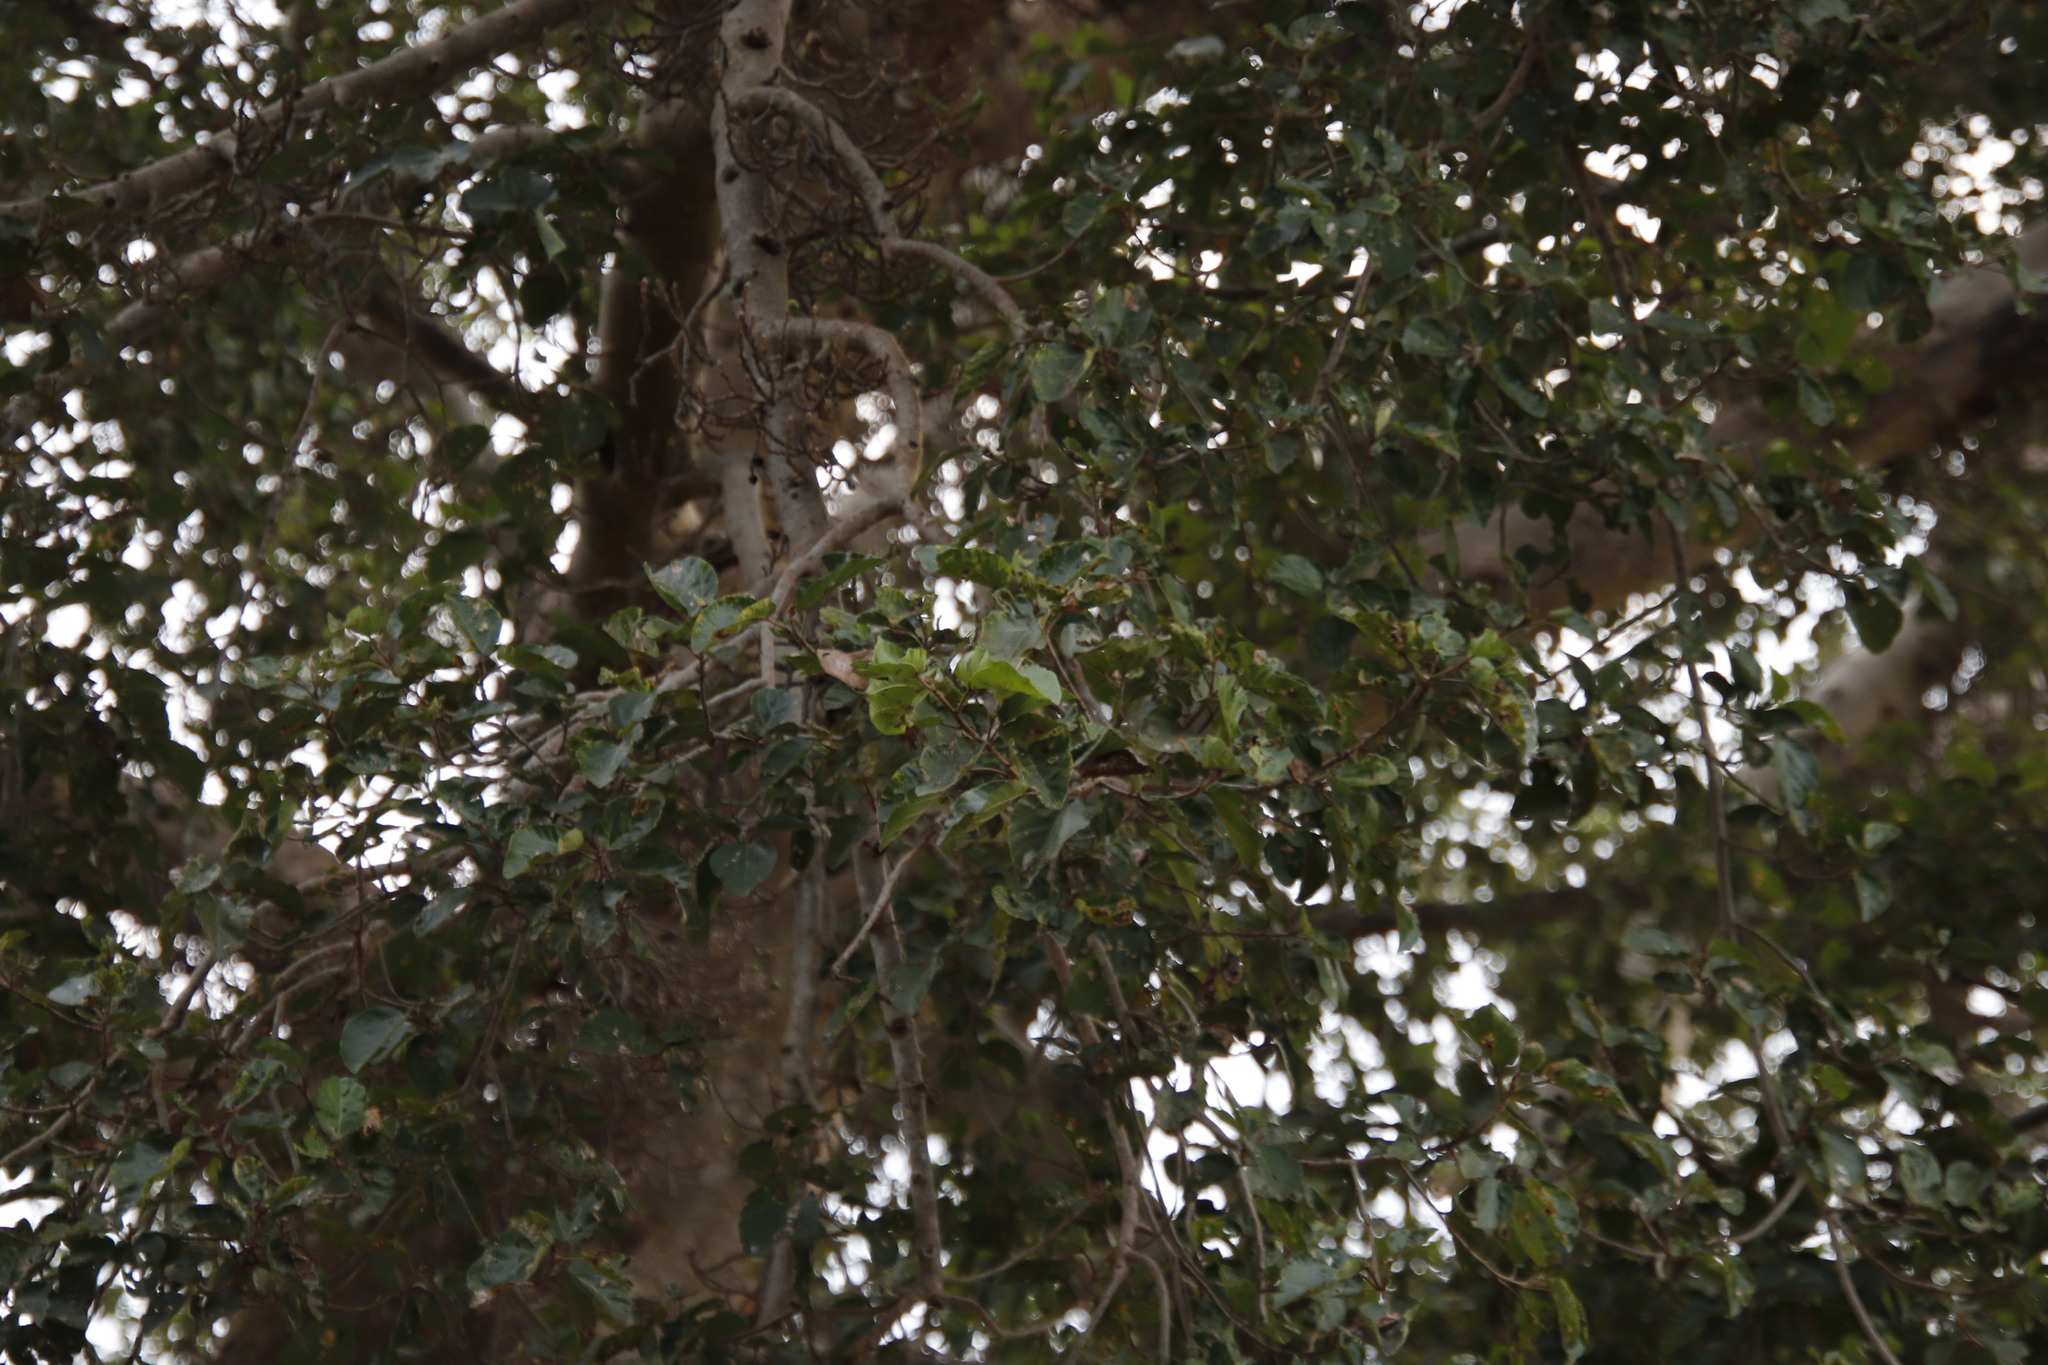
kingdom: Plantae
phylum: Tracheophyta
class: Magnoliopsida
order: Rosales
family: Moraceae
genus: Ficus
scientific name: Ficus sycomorus
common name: Sycomore
